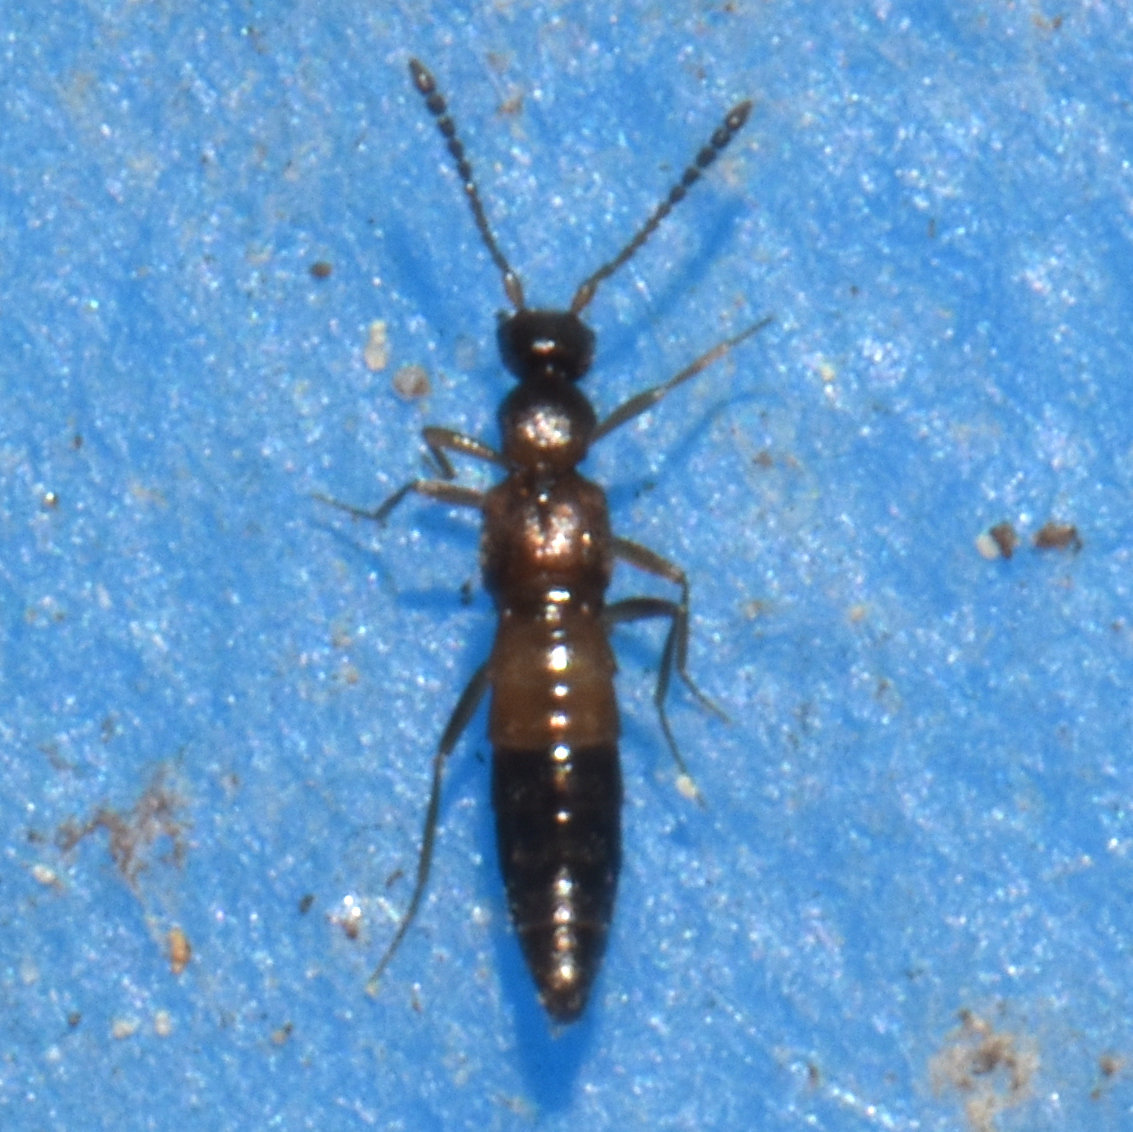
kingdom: Animalia
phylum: Arthropoda
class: Insecta
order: Coleoptera
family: Staphylinidae
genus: Meronera
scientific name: Meronera venustula
